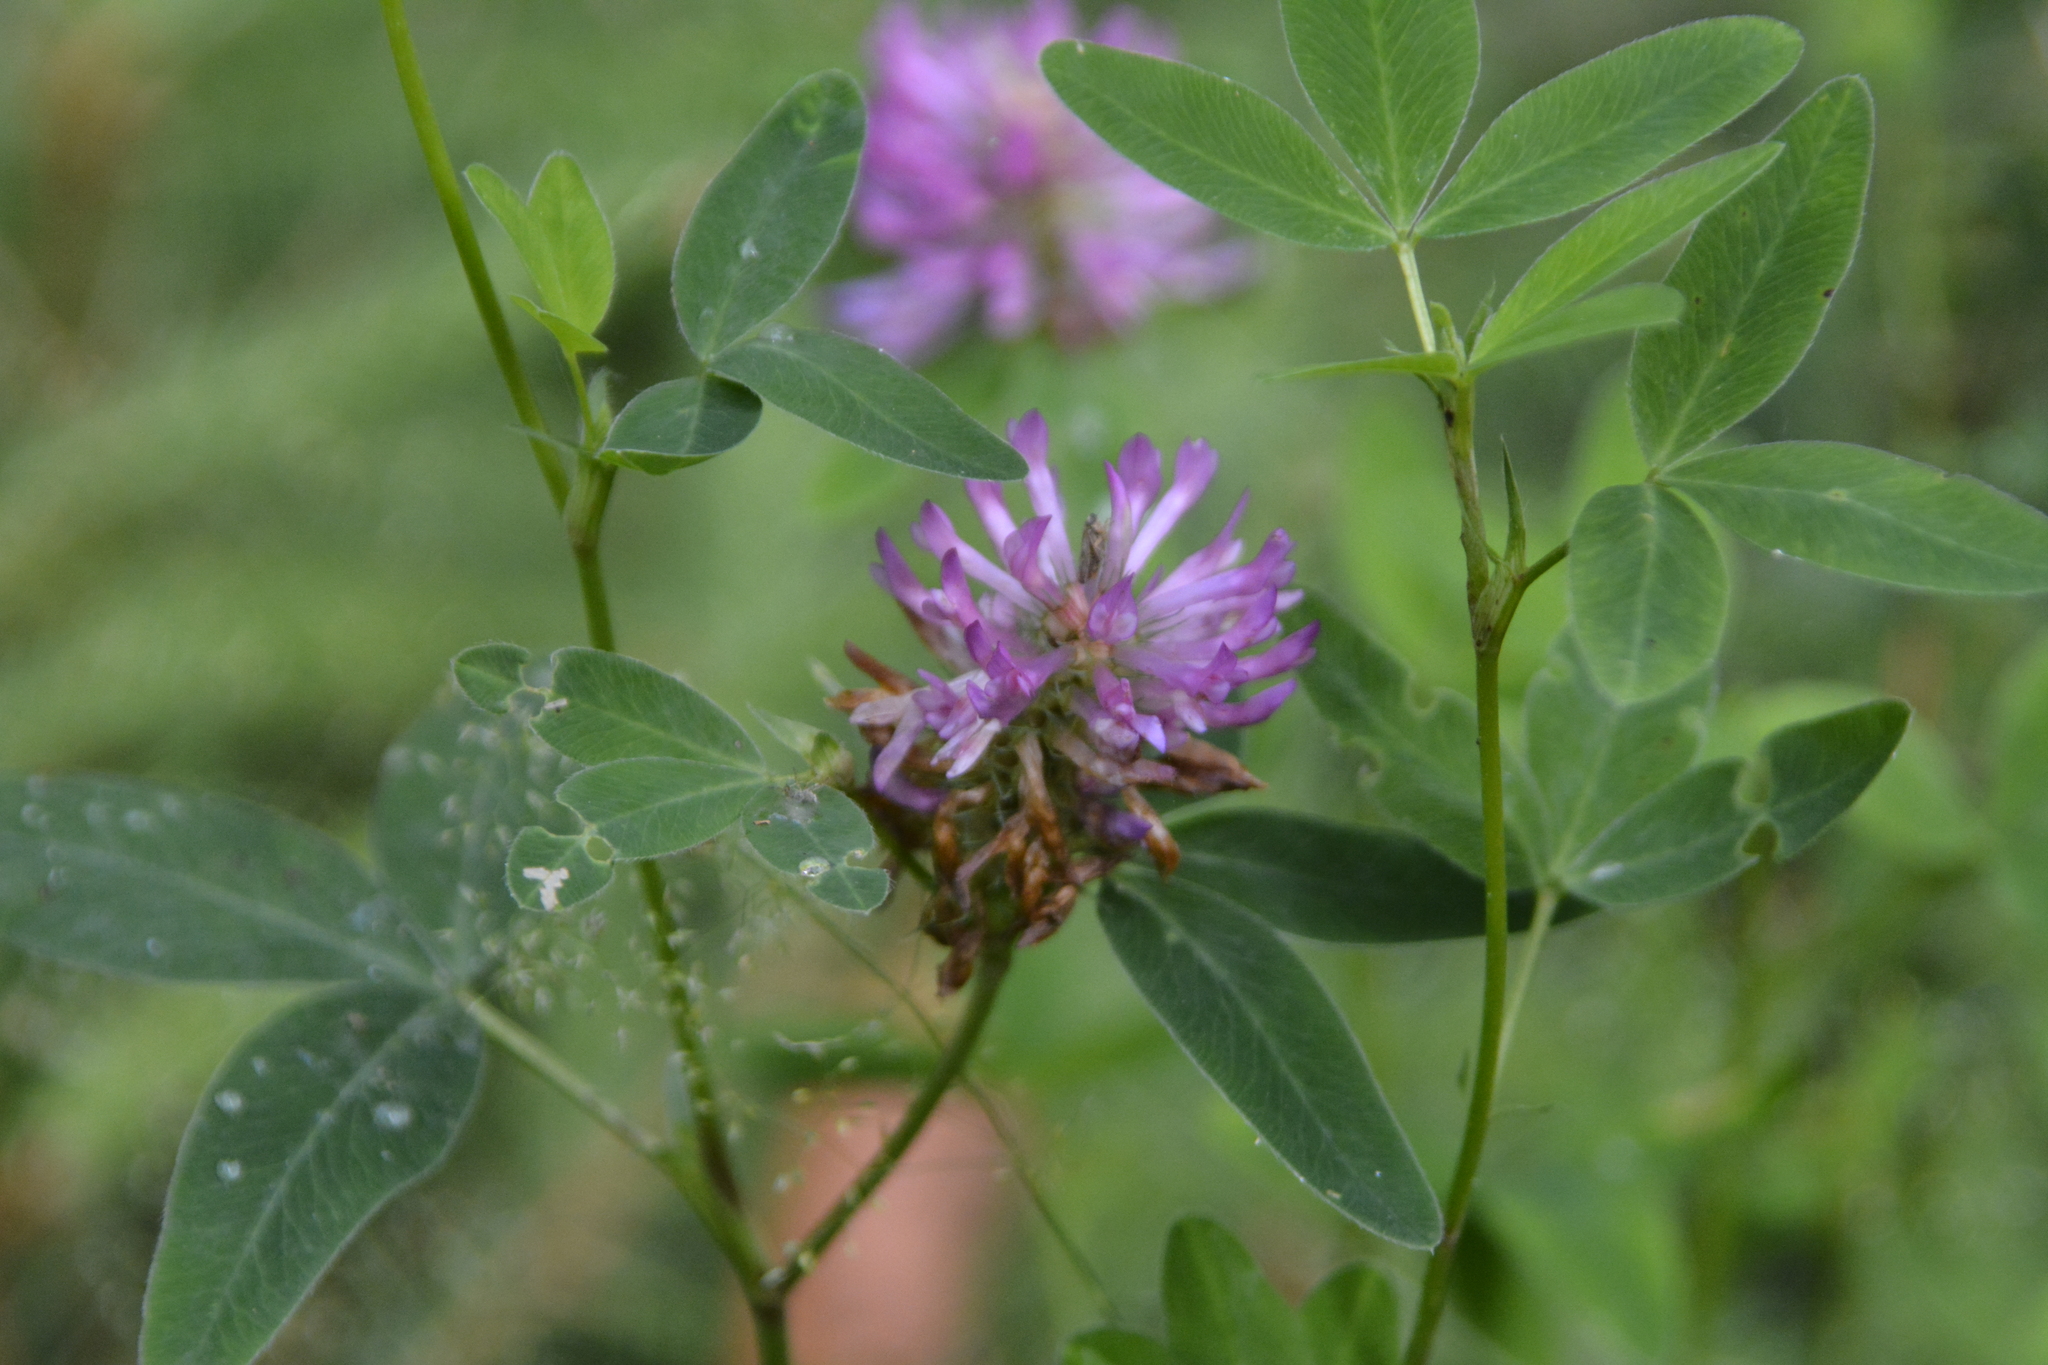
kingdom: Plantae
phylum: Tracheophyta
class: Magnoliopsida
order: Fabales
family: Fabaceae
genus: Trifolium
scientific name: Trifolium medium
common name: Zigzag clover
